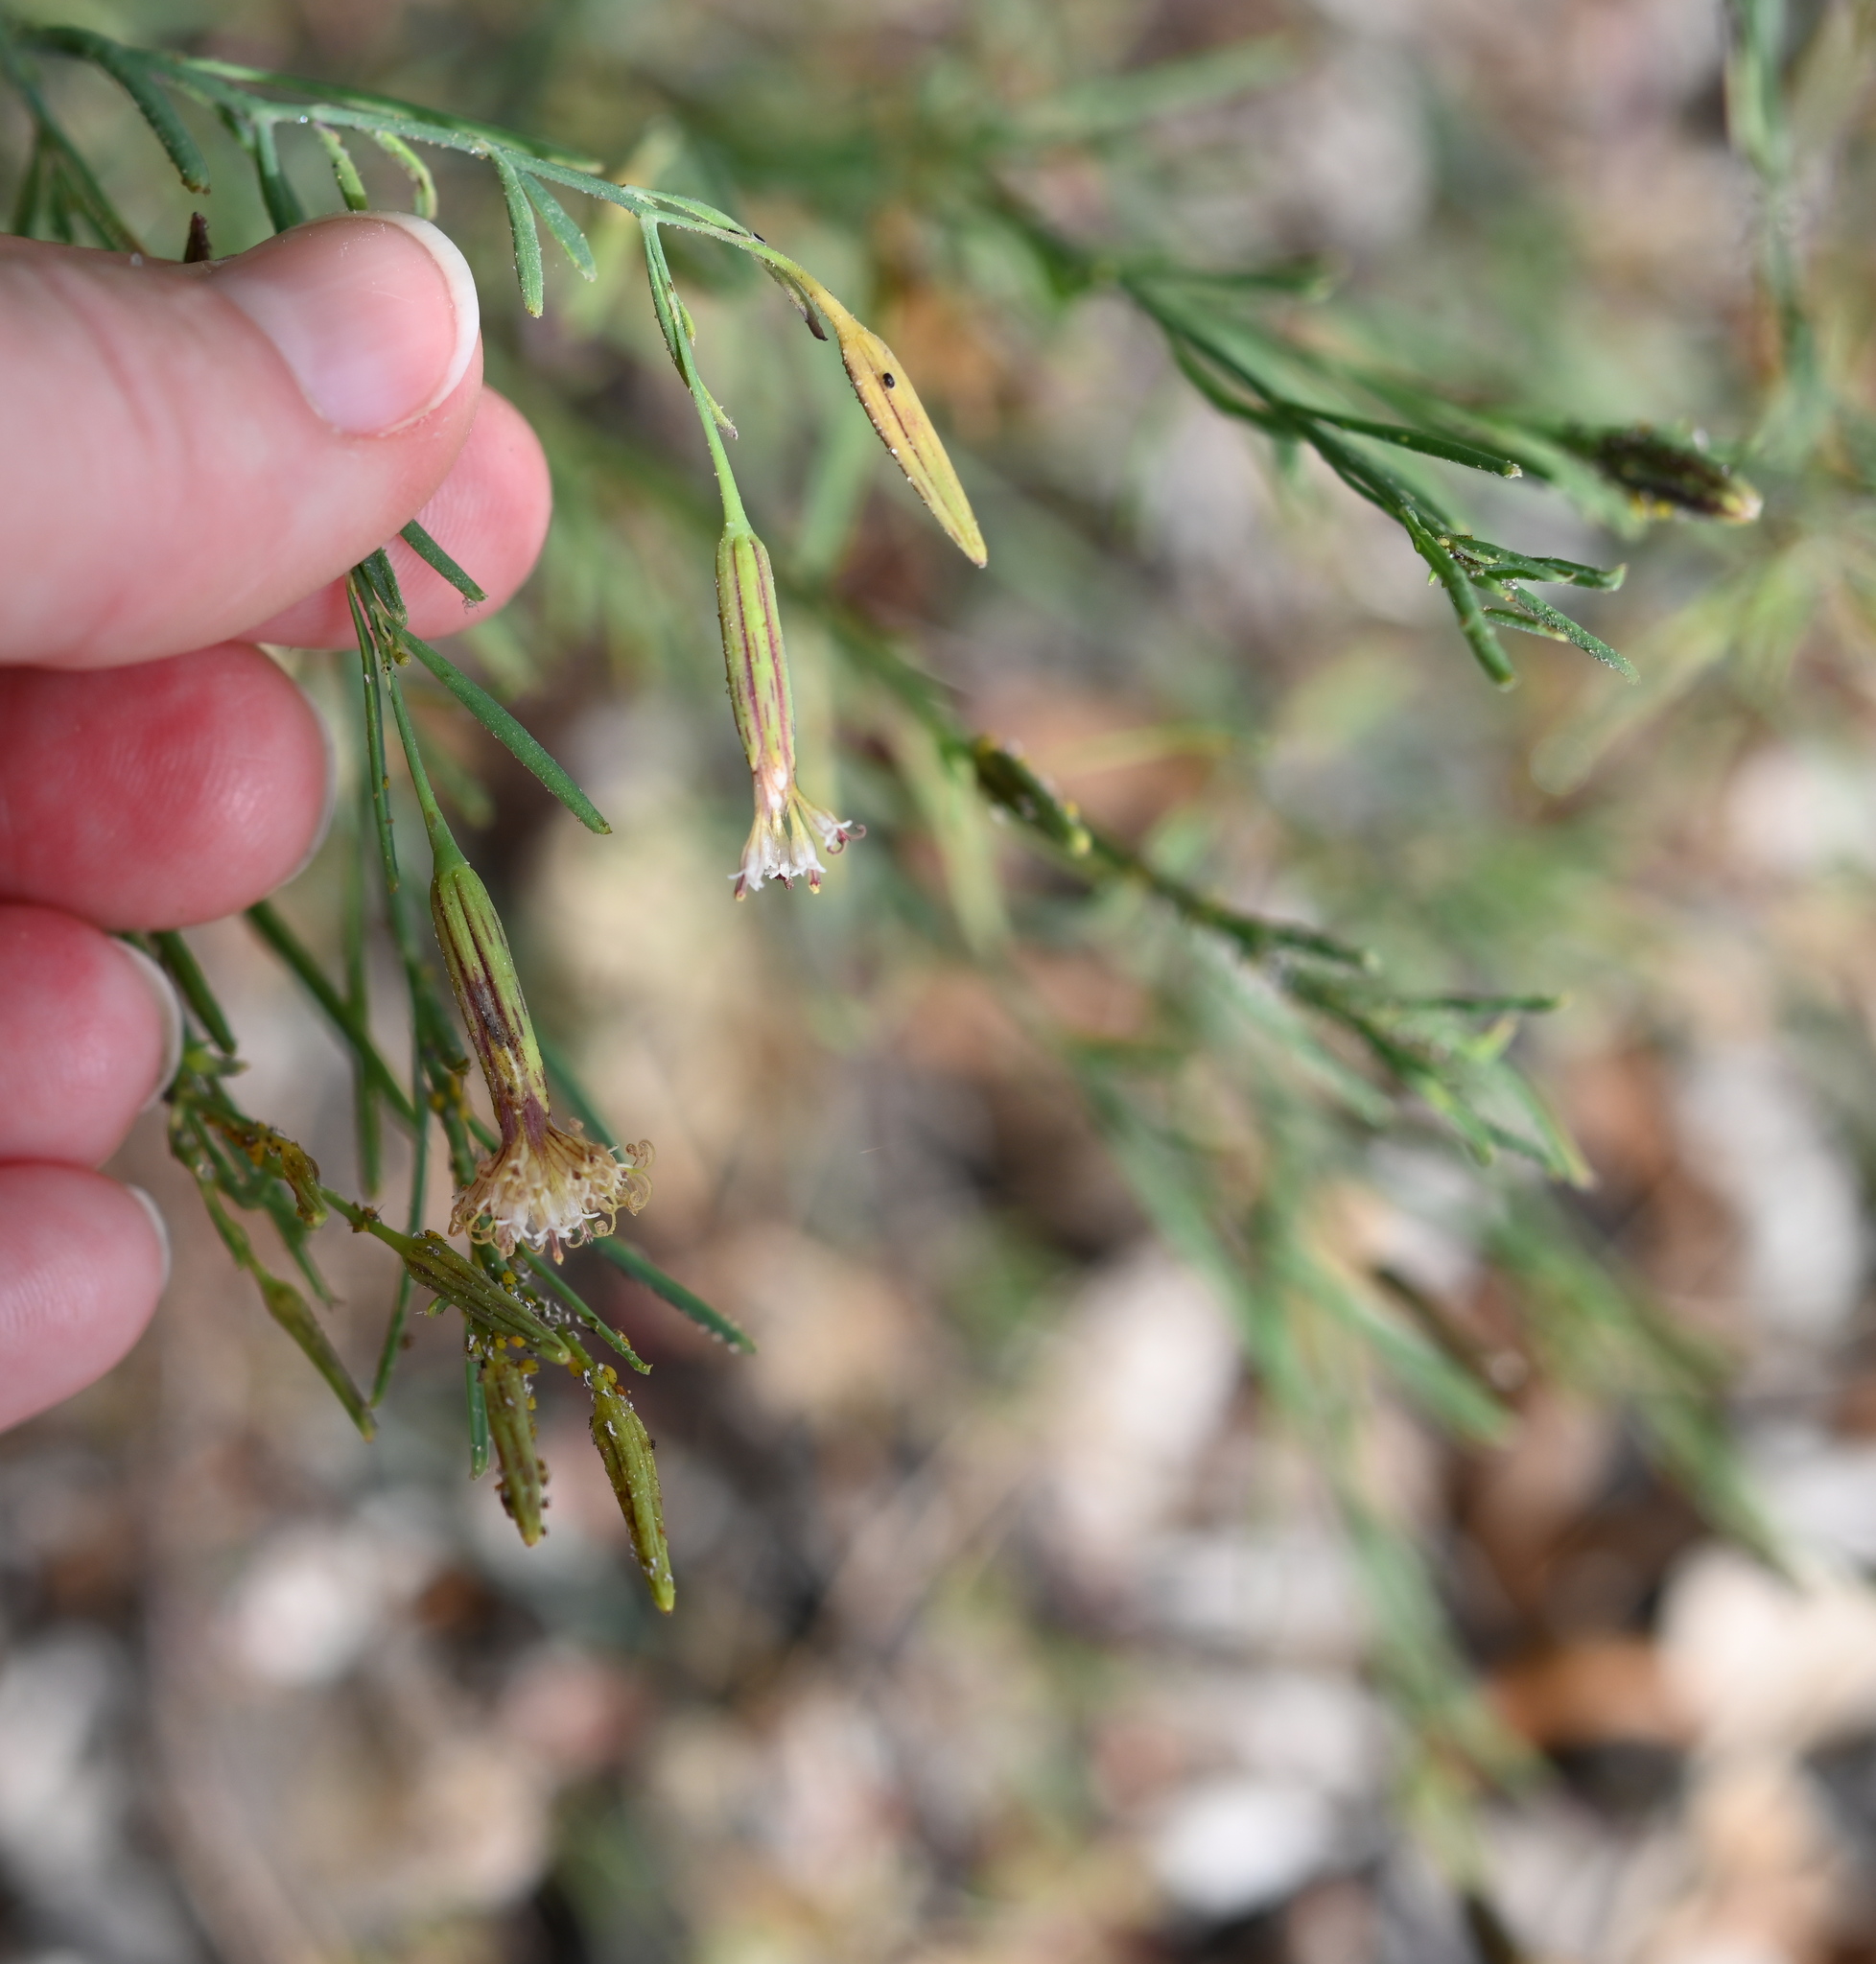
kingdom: Plantae
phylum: Tracheophyta
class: Magnoliopsida
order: Asterales
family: Asteraceae
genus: Porophyllum
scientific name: Porophyllum gracile
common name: Odora
